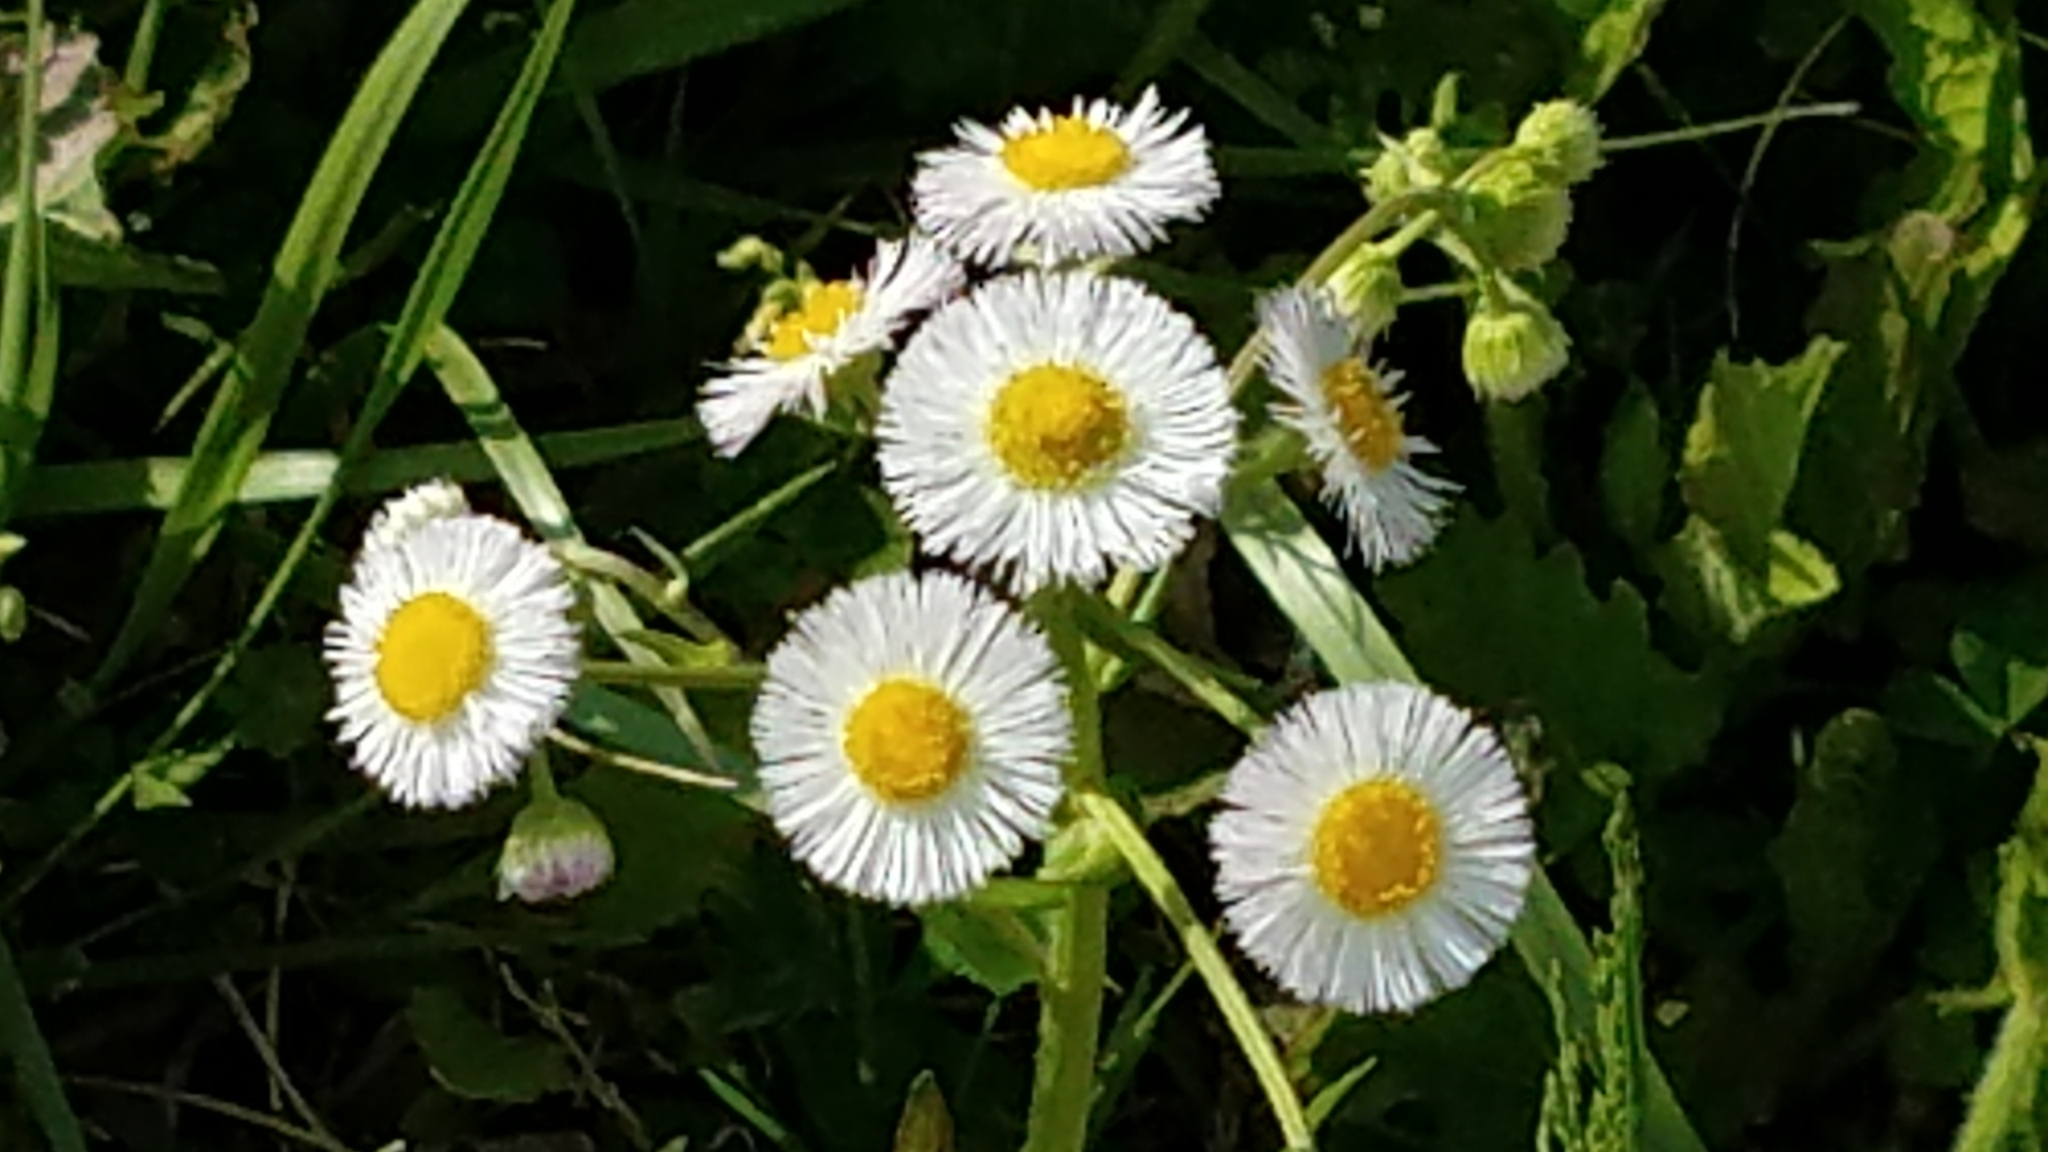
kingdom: Plantae
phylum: Tracheophyta
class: Magnoliopsida
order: Asterales
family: Asteraceae
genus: Erigeron
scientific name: Erigeron philadelphicus
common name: Robin's-plantain
